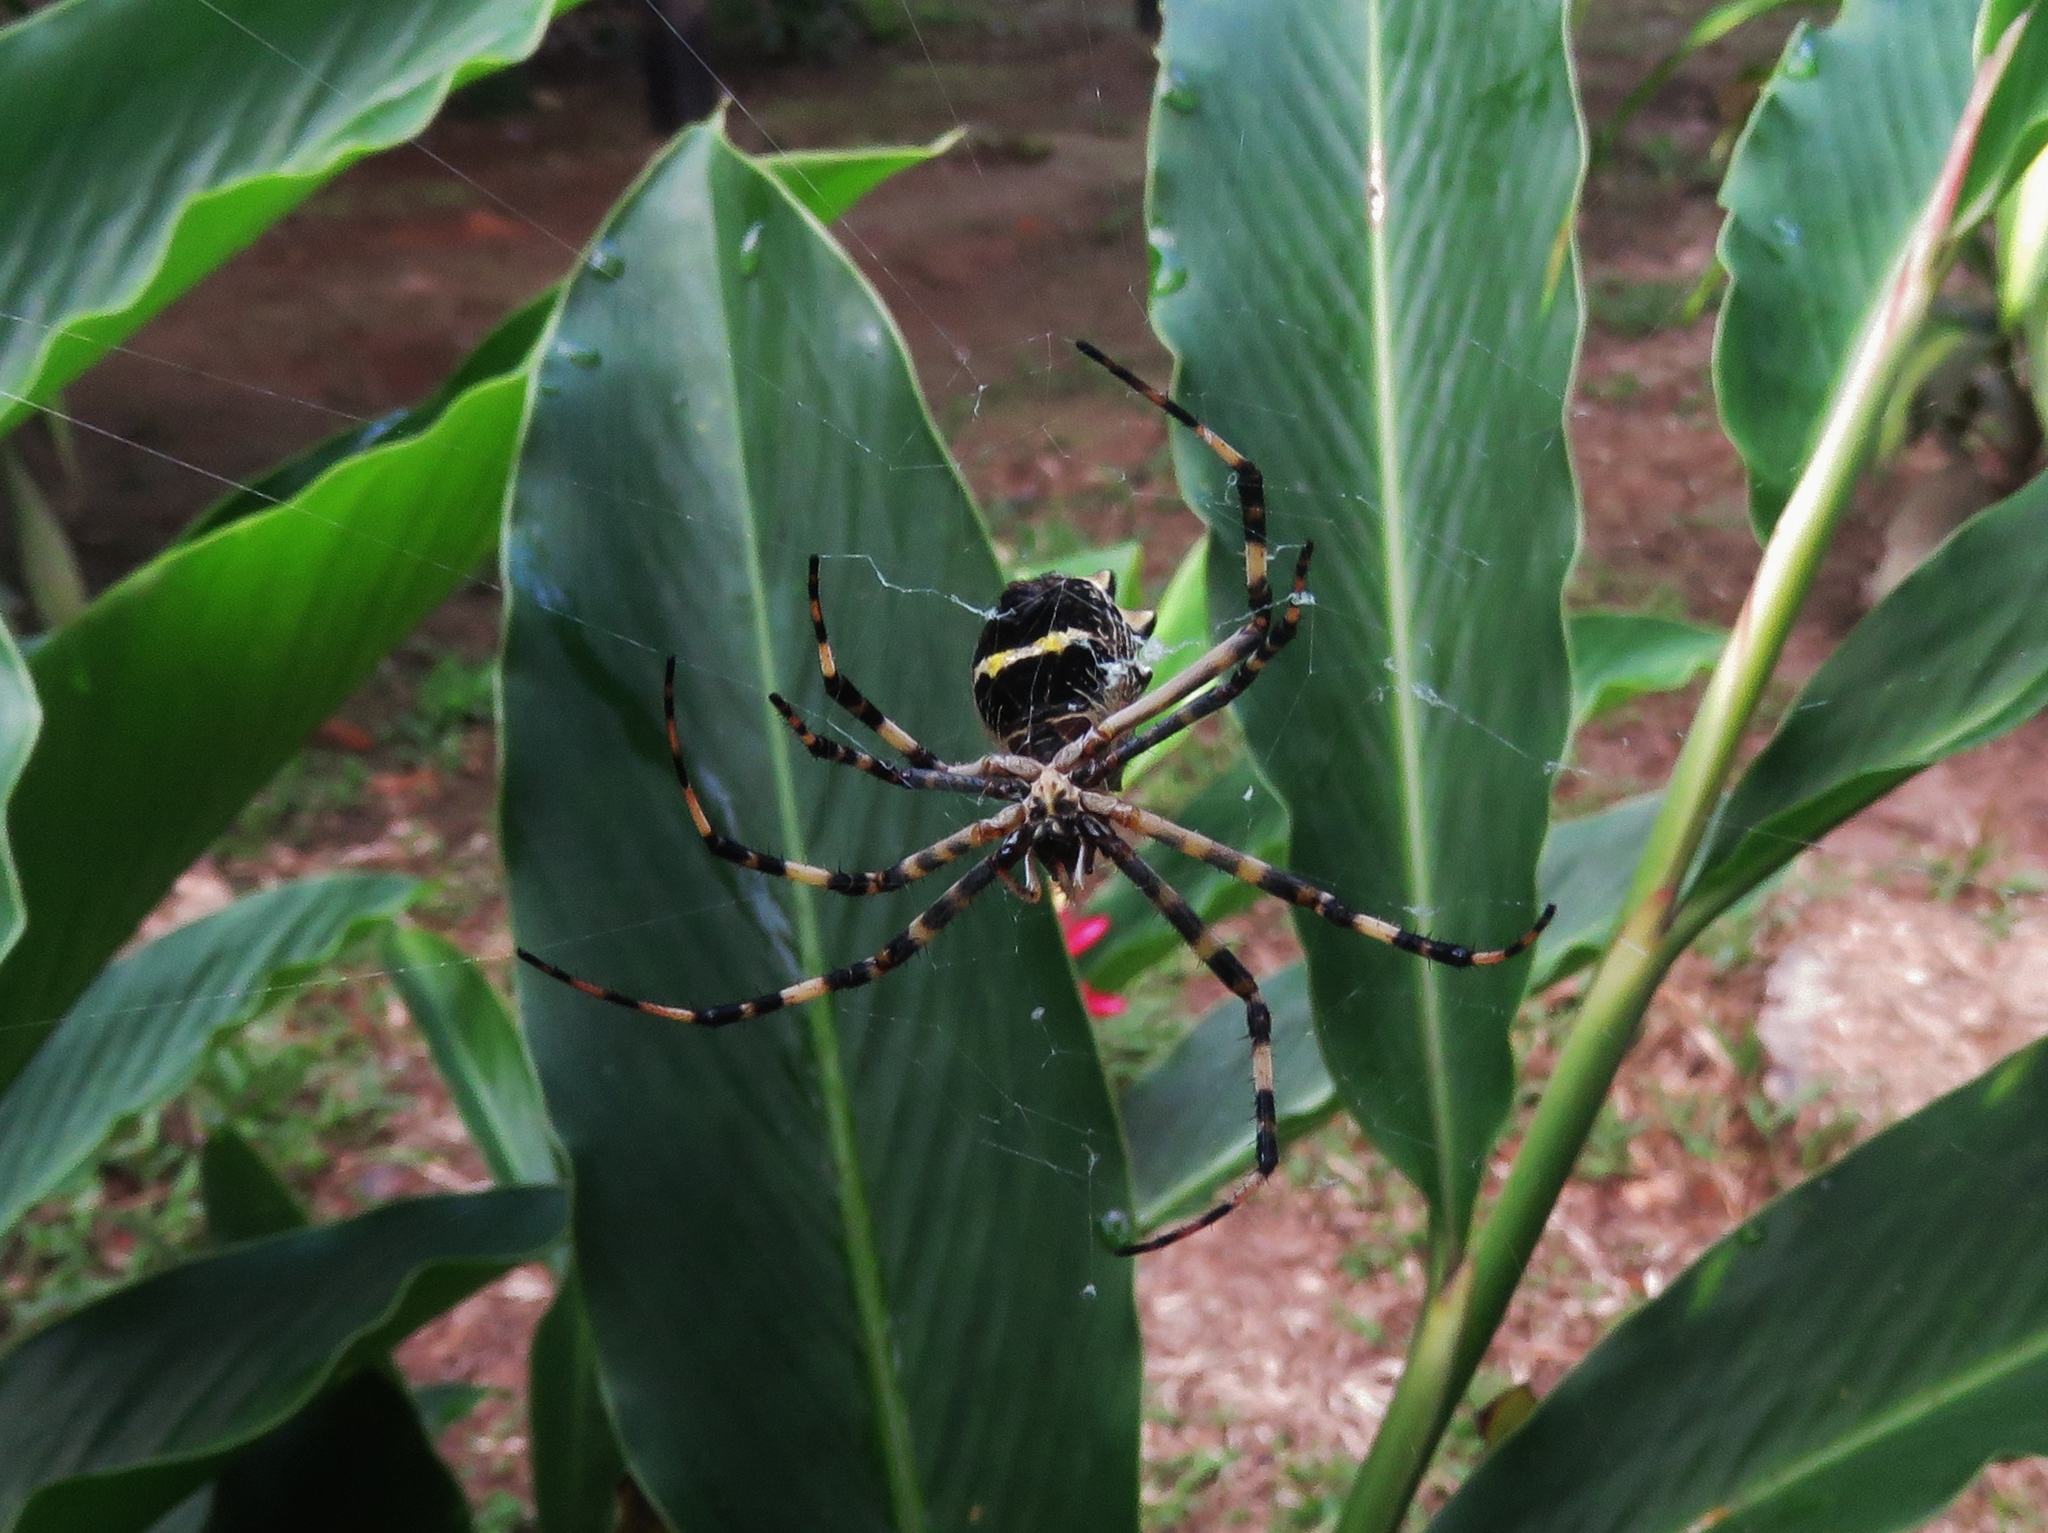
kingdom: Animalia
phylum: Arthropoda
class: Arachnida
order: Araneae
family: Araneidae
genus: Argiope
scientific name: Argiope argentata
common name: Orb weavers
